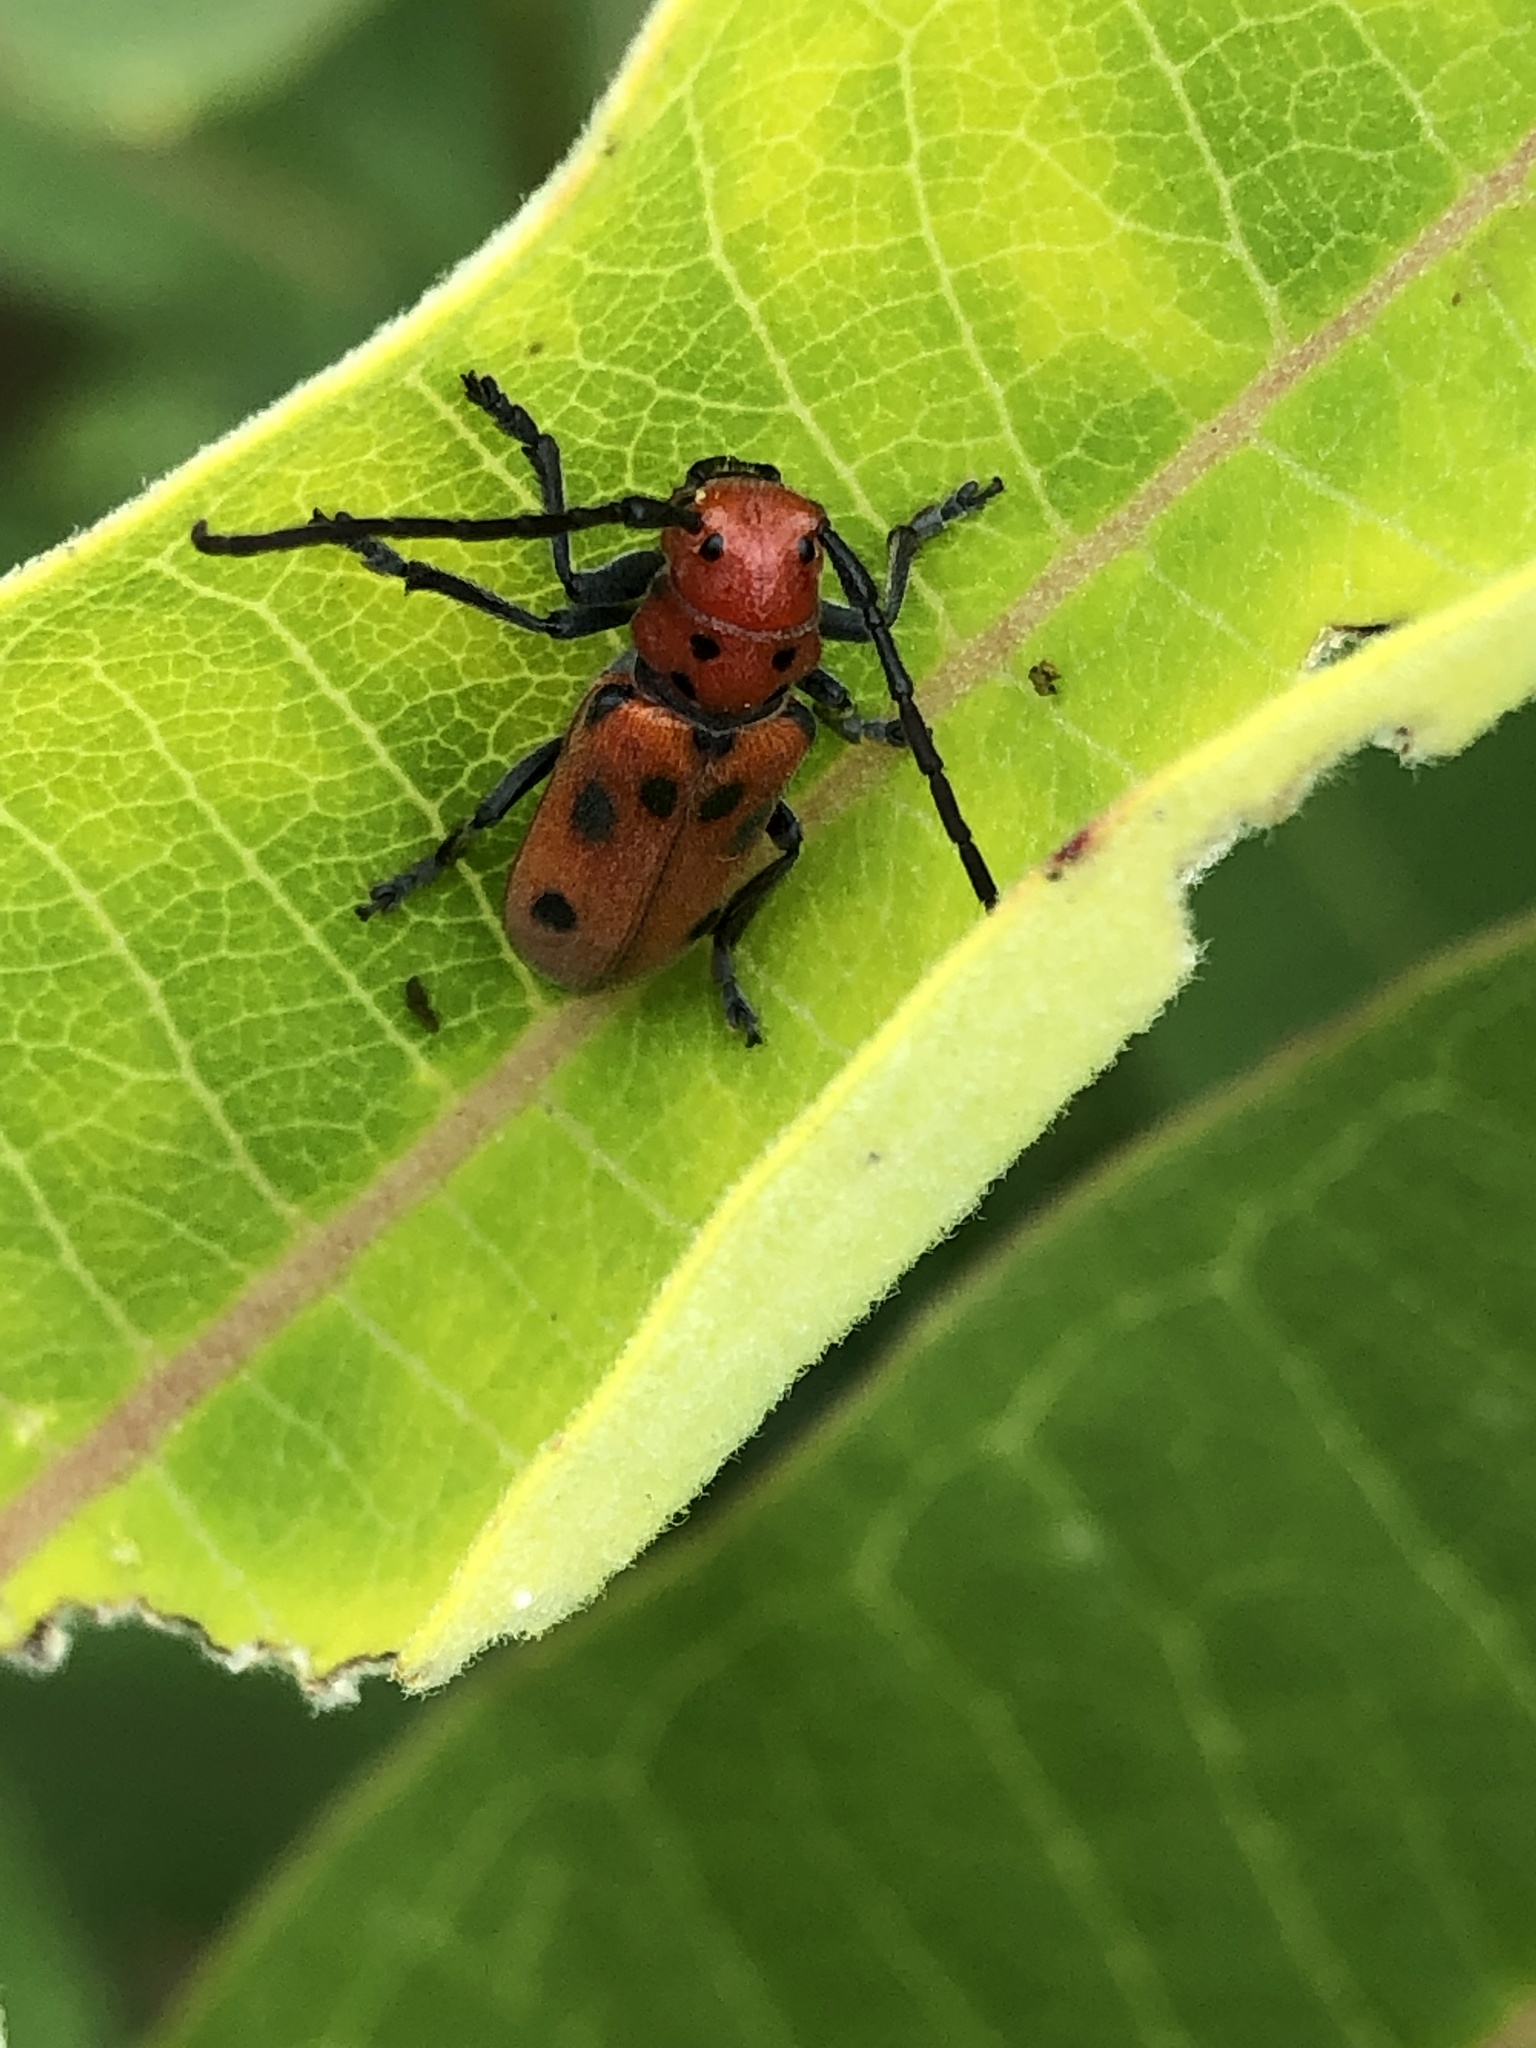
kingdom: Animalia
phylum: Arthropoda
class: Insecta
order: Coleoptera
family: Cerambycidae
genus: Tetraopes
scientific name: Tetraopes tetrophthalmus
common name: Red milkweed beetle
